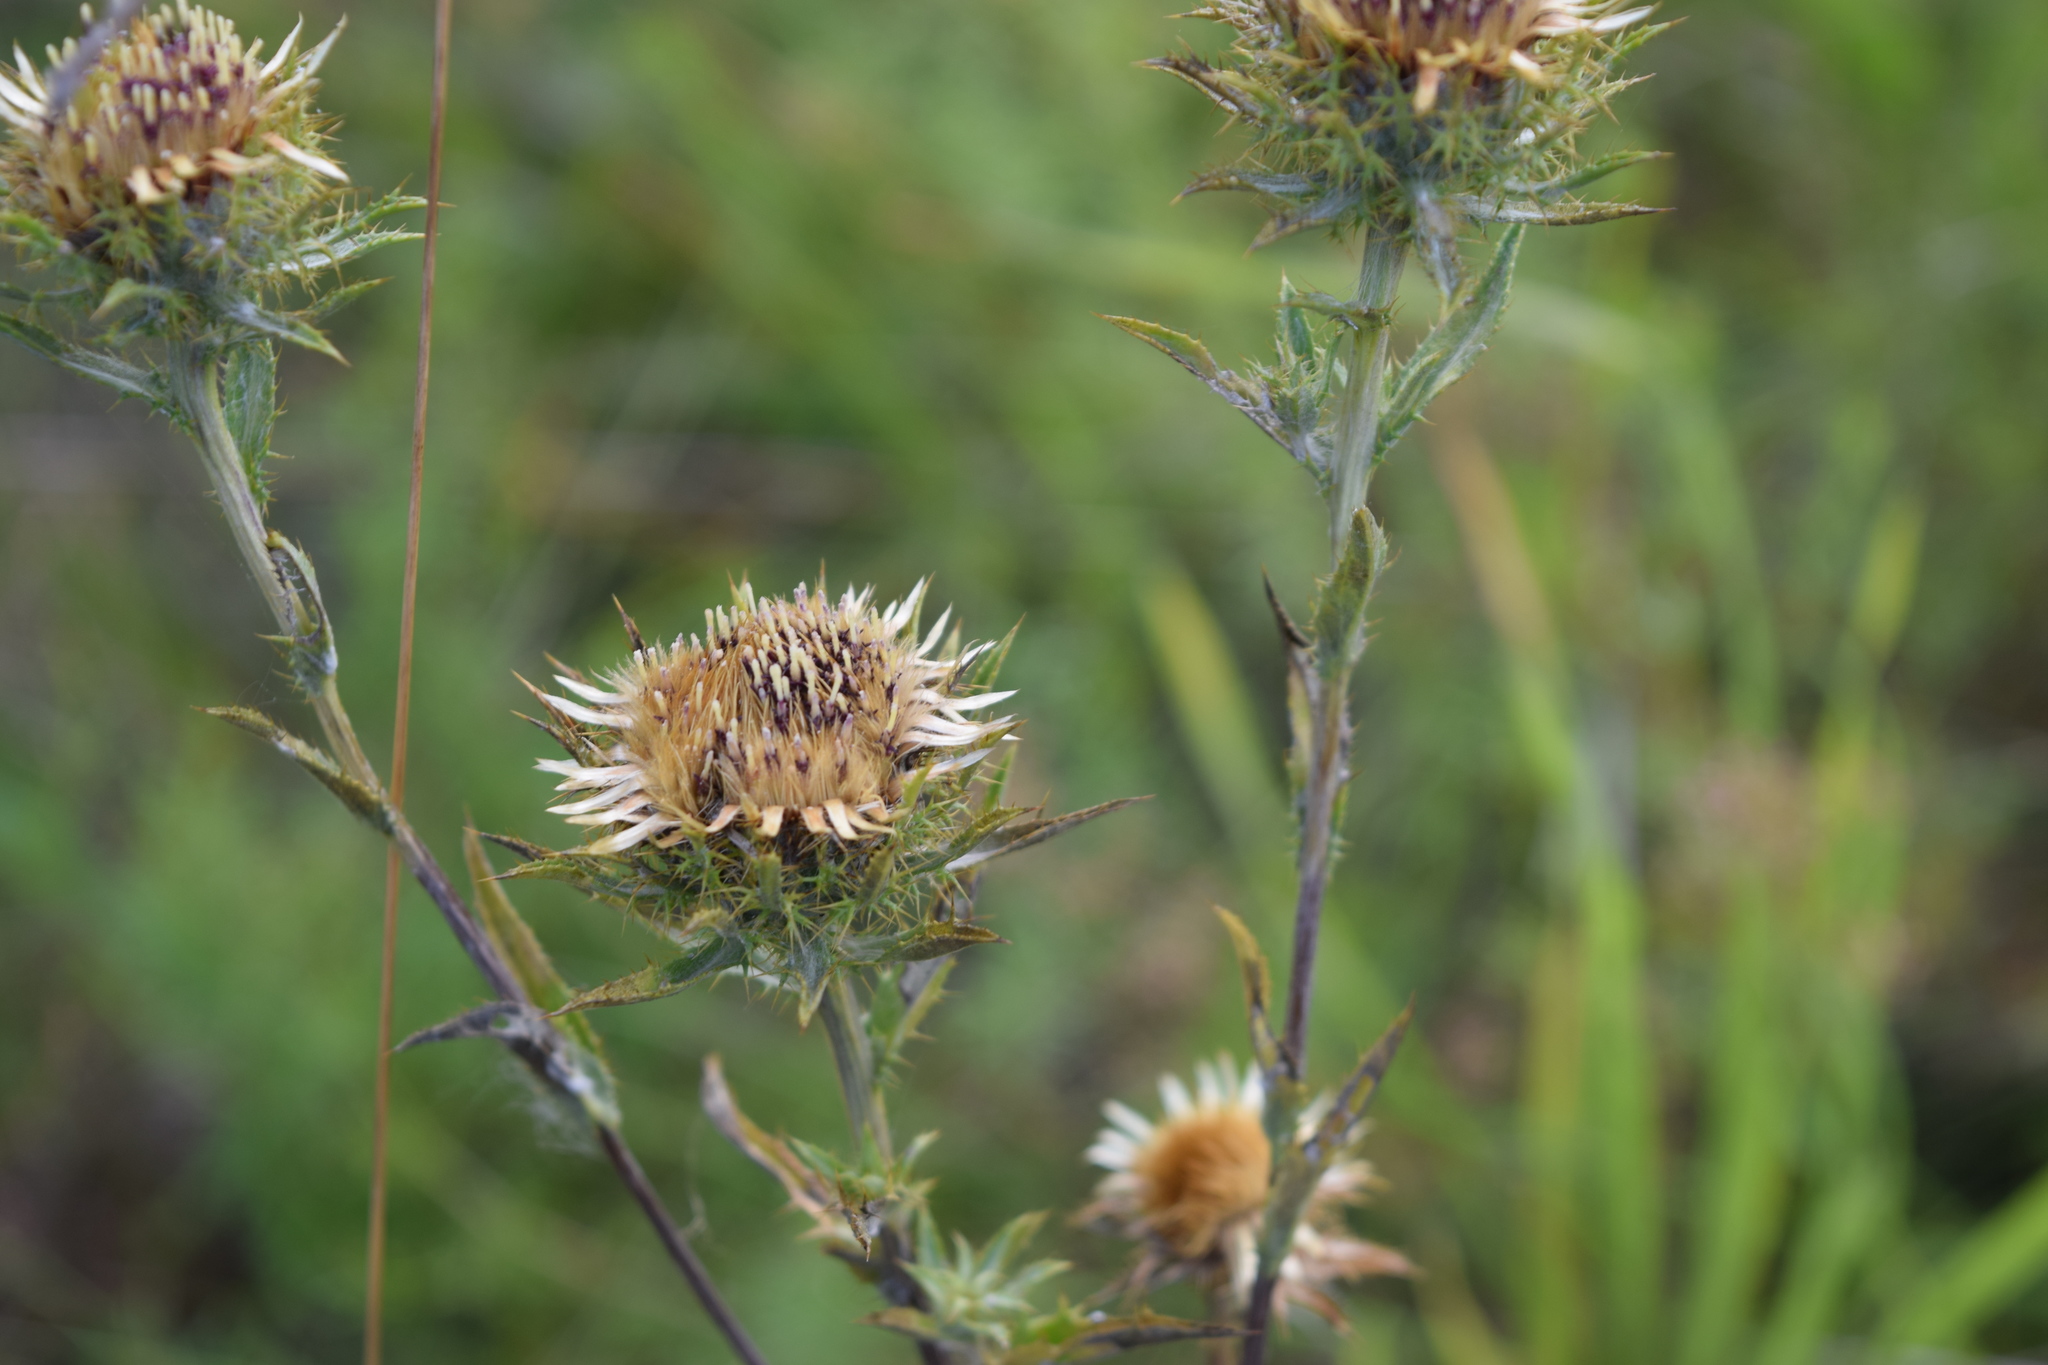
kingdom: Plantae
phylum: Tracheophyta
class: Magnoliopsida
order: Asterales
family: Asteraceae
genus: Carlina
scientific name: Carlina biebersteinii
